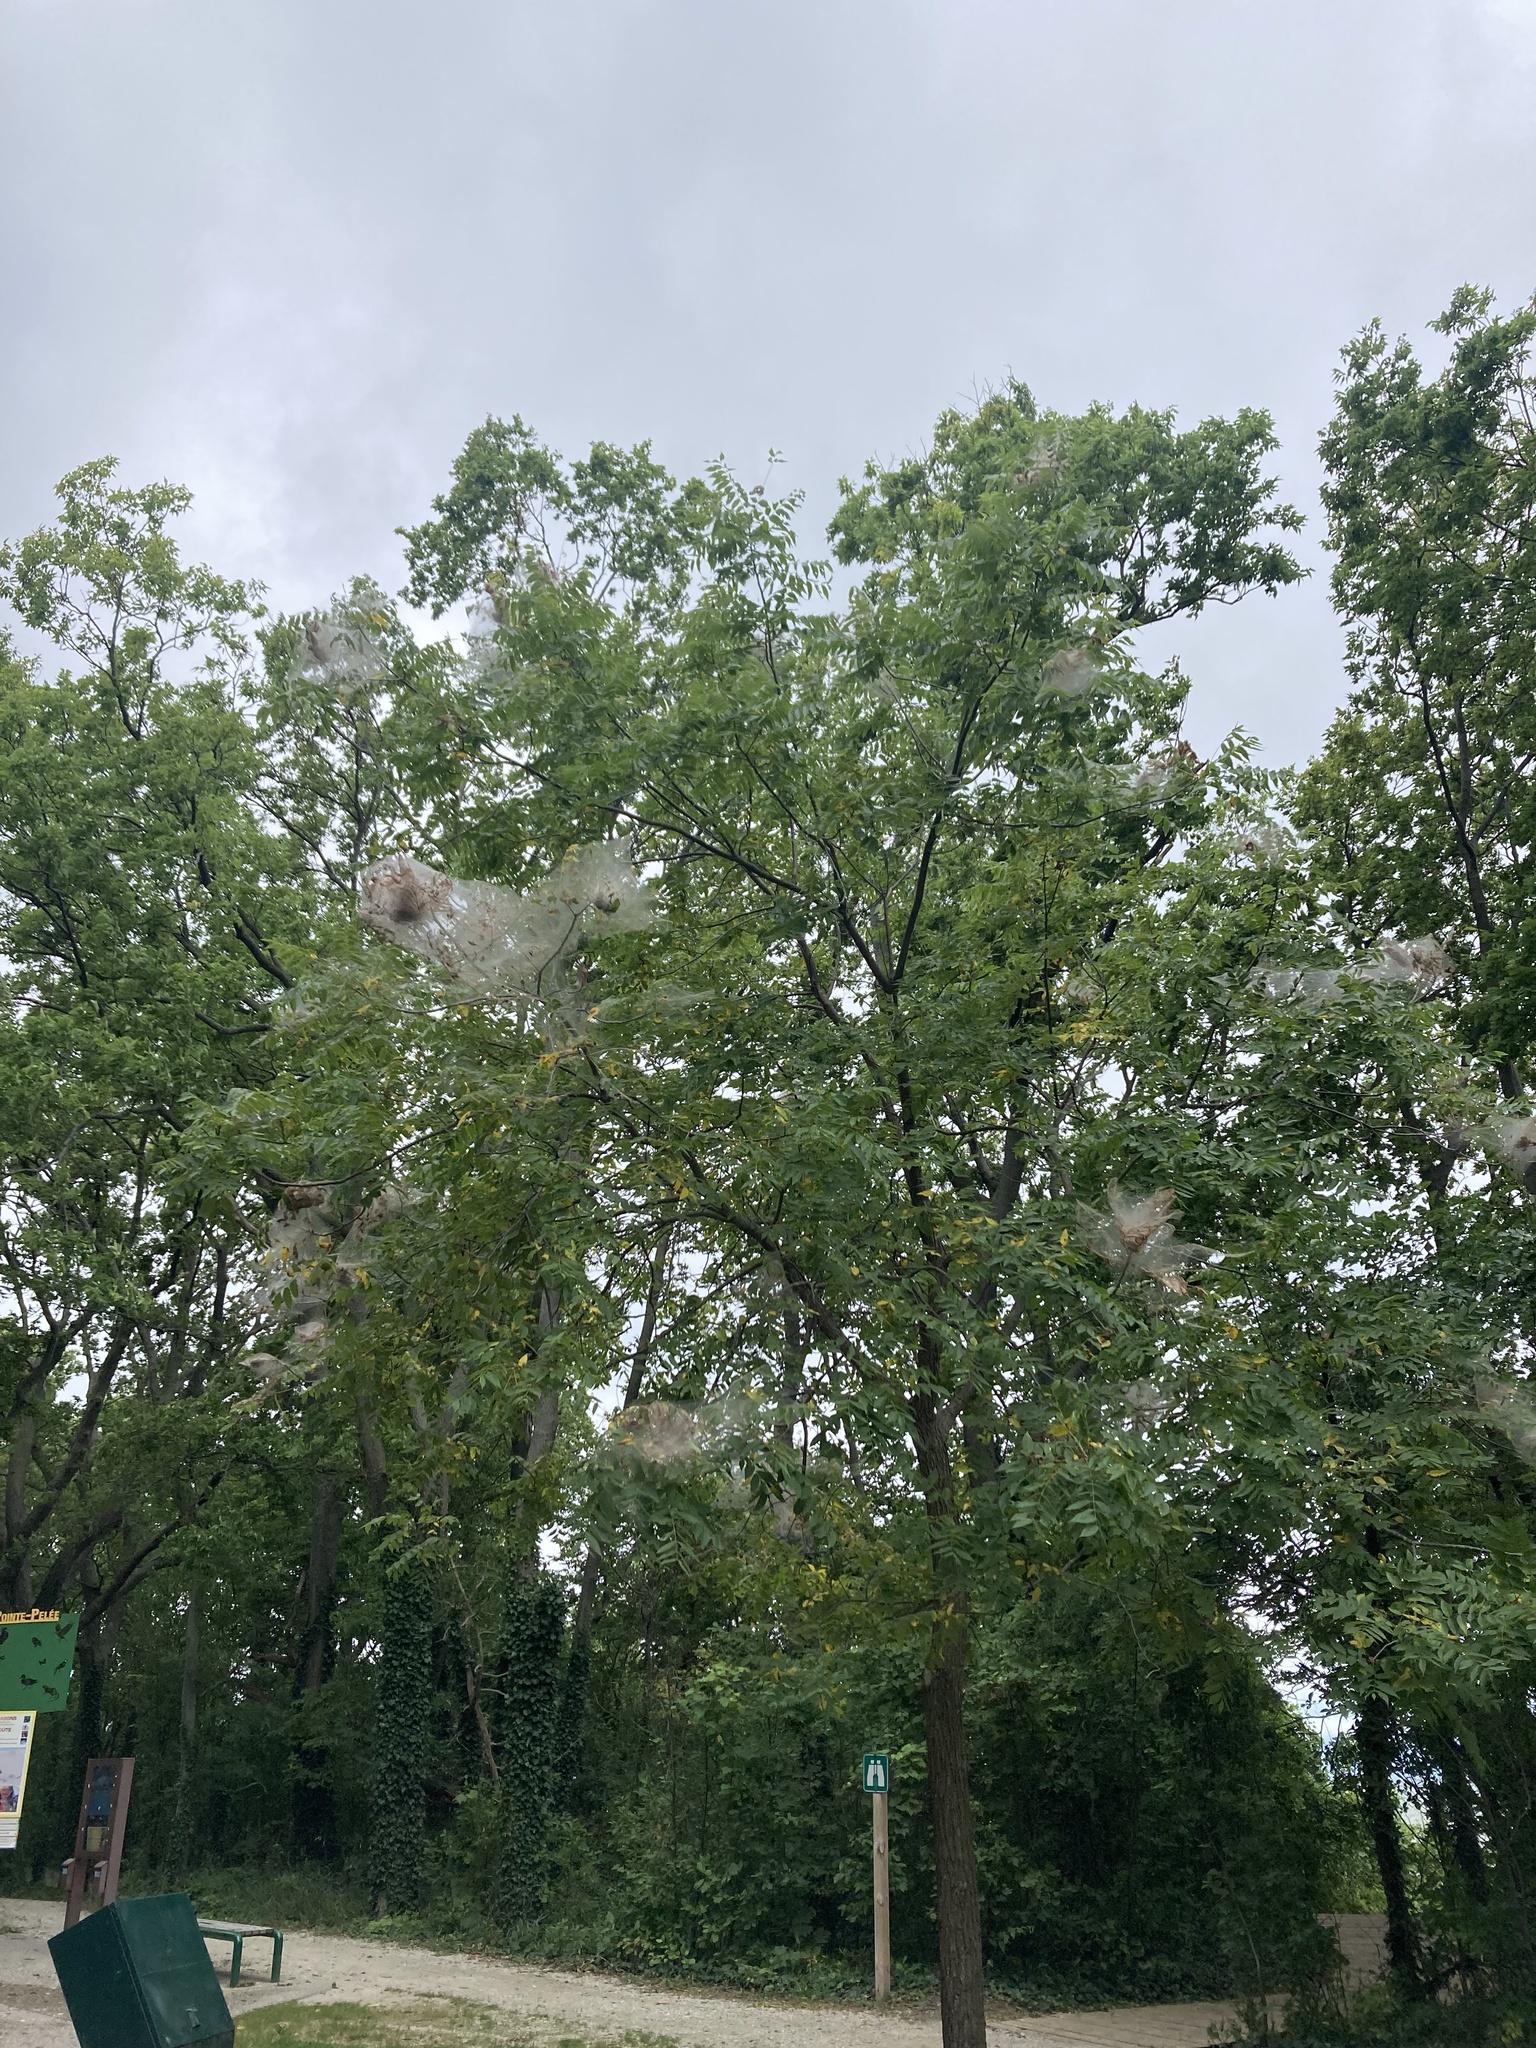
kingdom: Plantae
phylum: Tracheophyta
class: Magnoliopsida
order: Fagales
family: Juglandaceae
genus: Juglans
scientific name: Juglans nigra
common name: Black walnut
